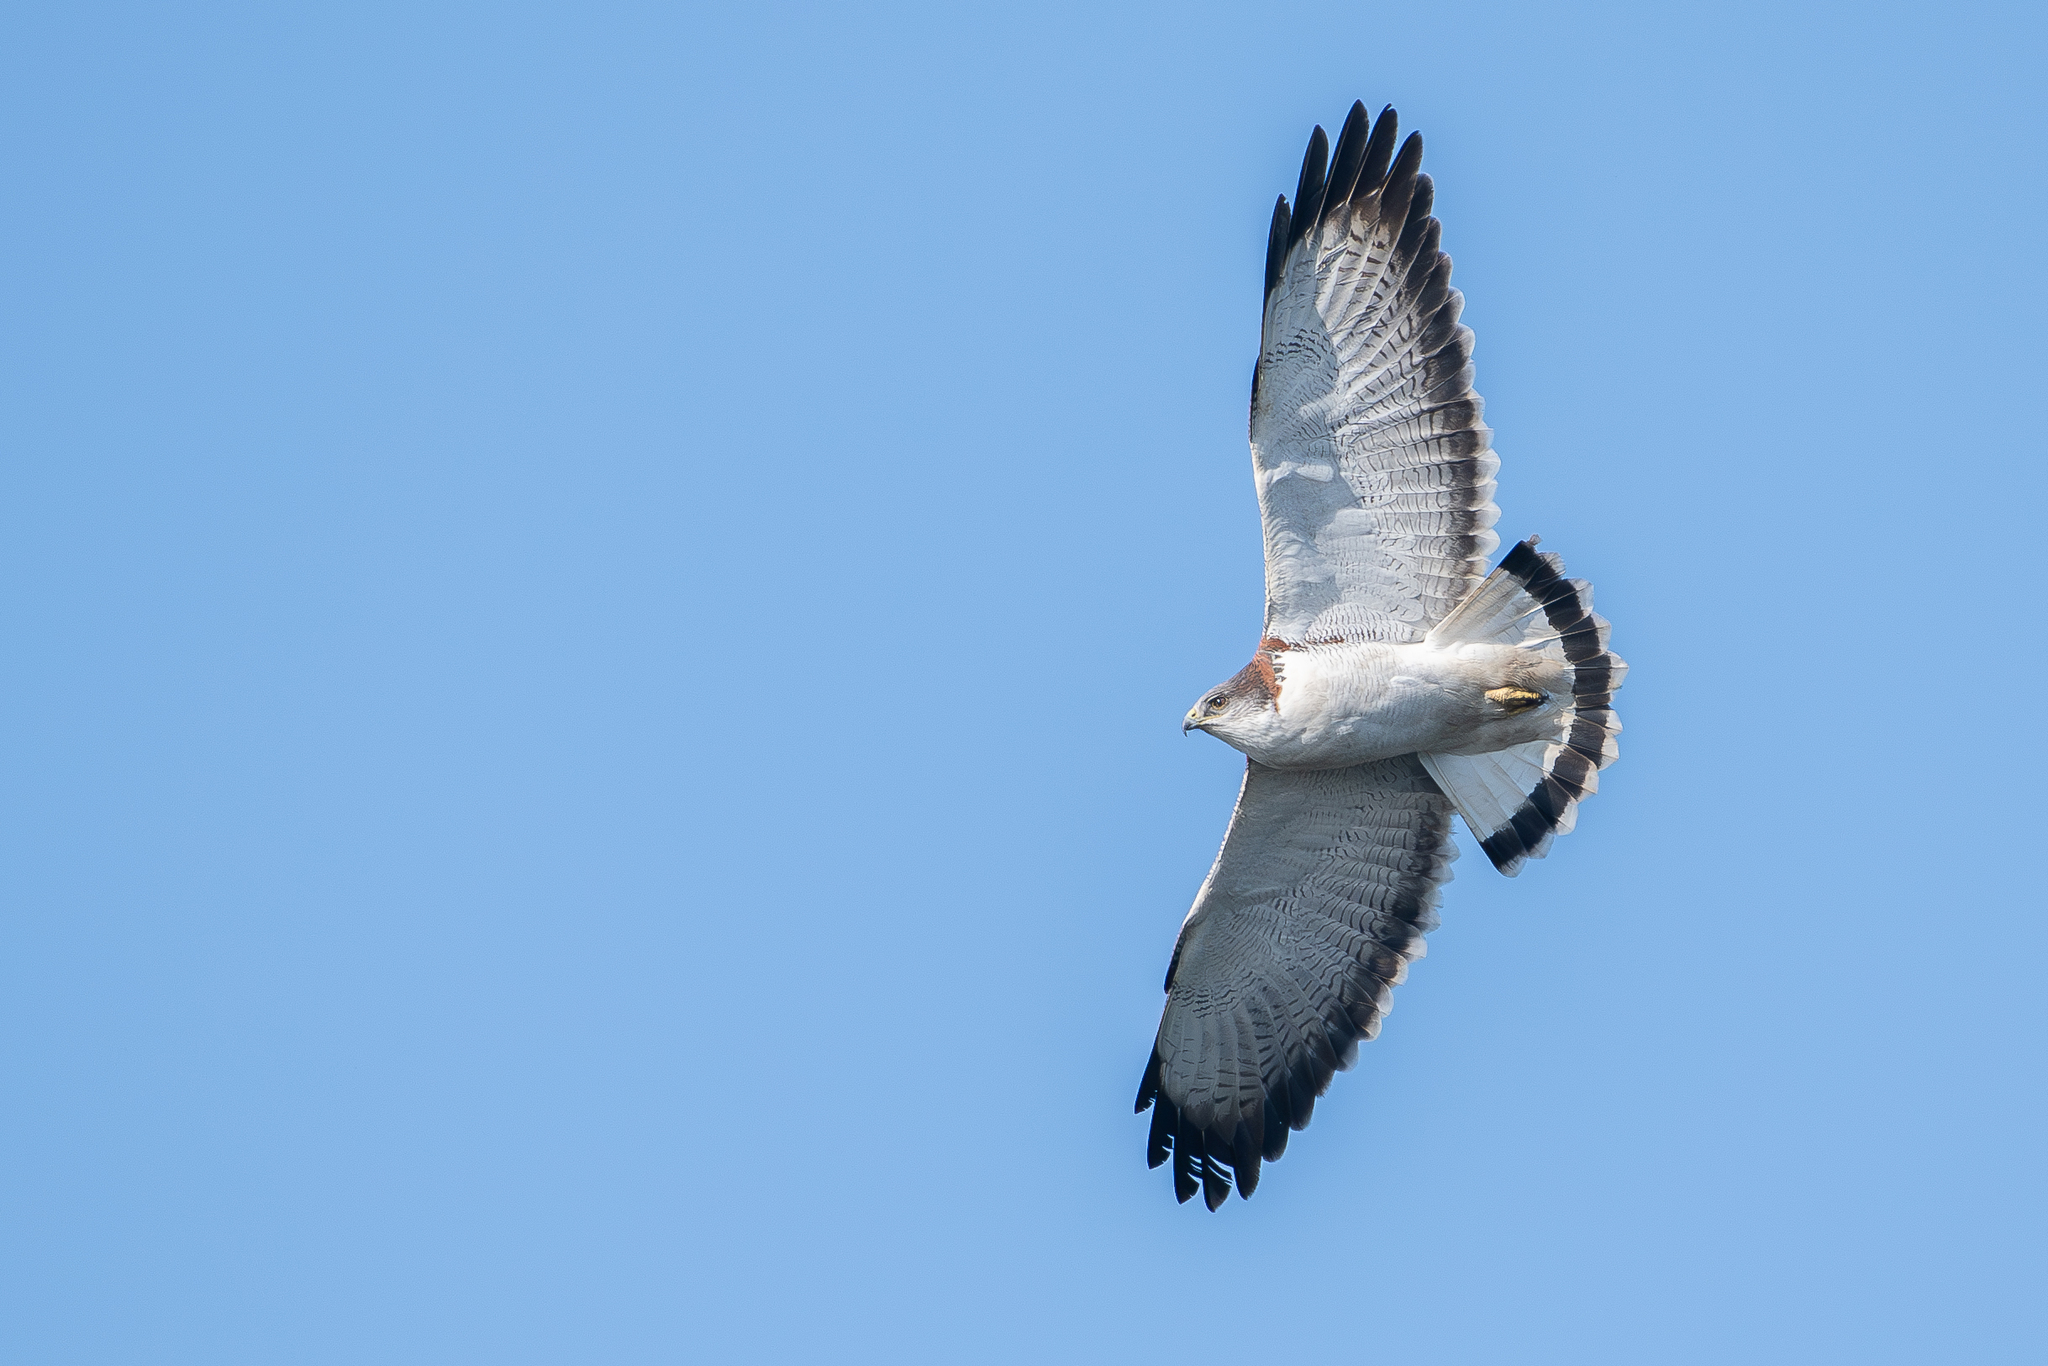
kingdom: Animalia
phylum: Chordata
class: Aves
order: Accipitriformes
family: Accipitridae
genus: Buteo
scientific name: Buteo polyosoma
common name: Variable hawk
